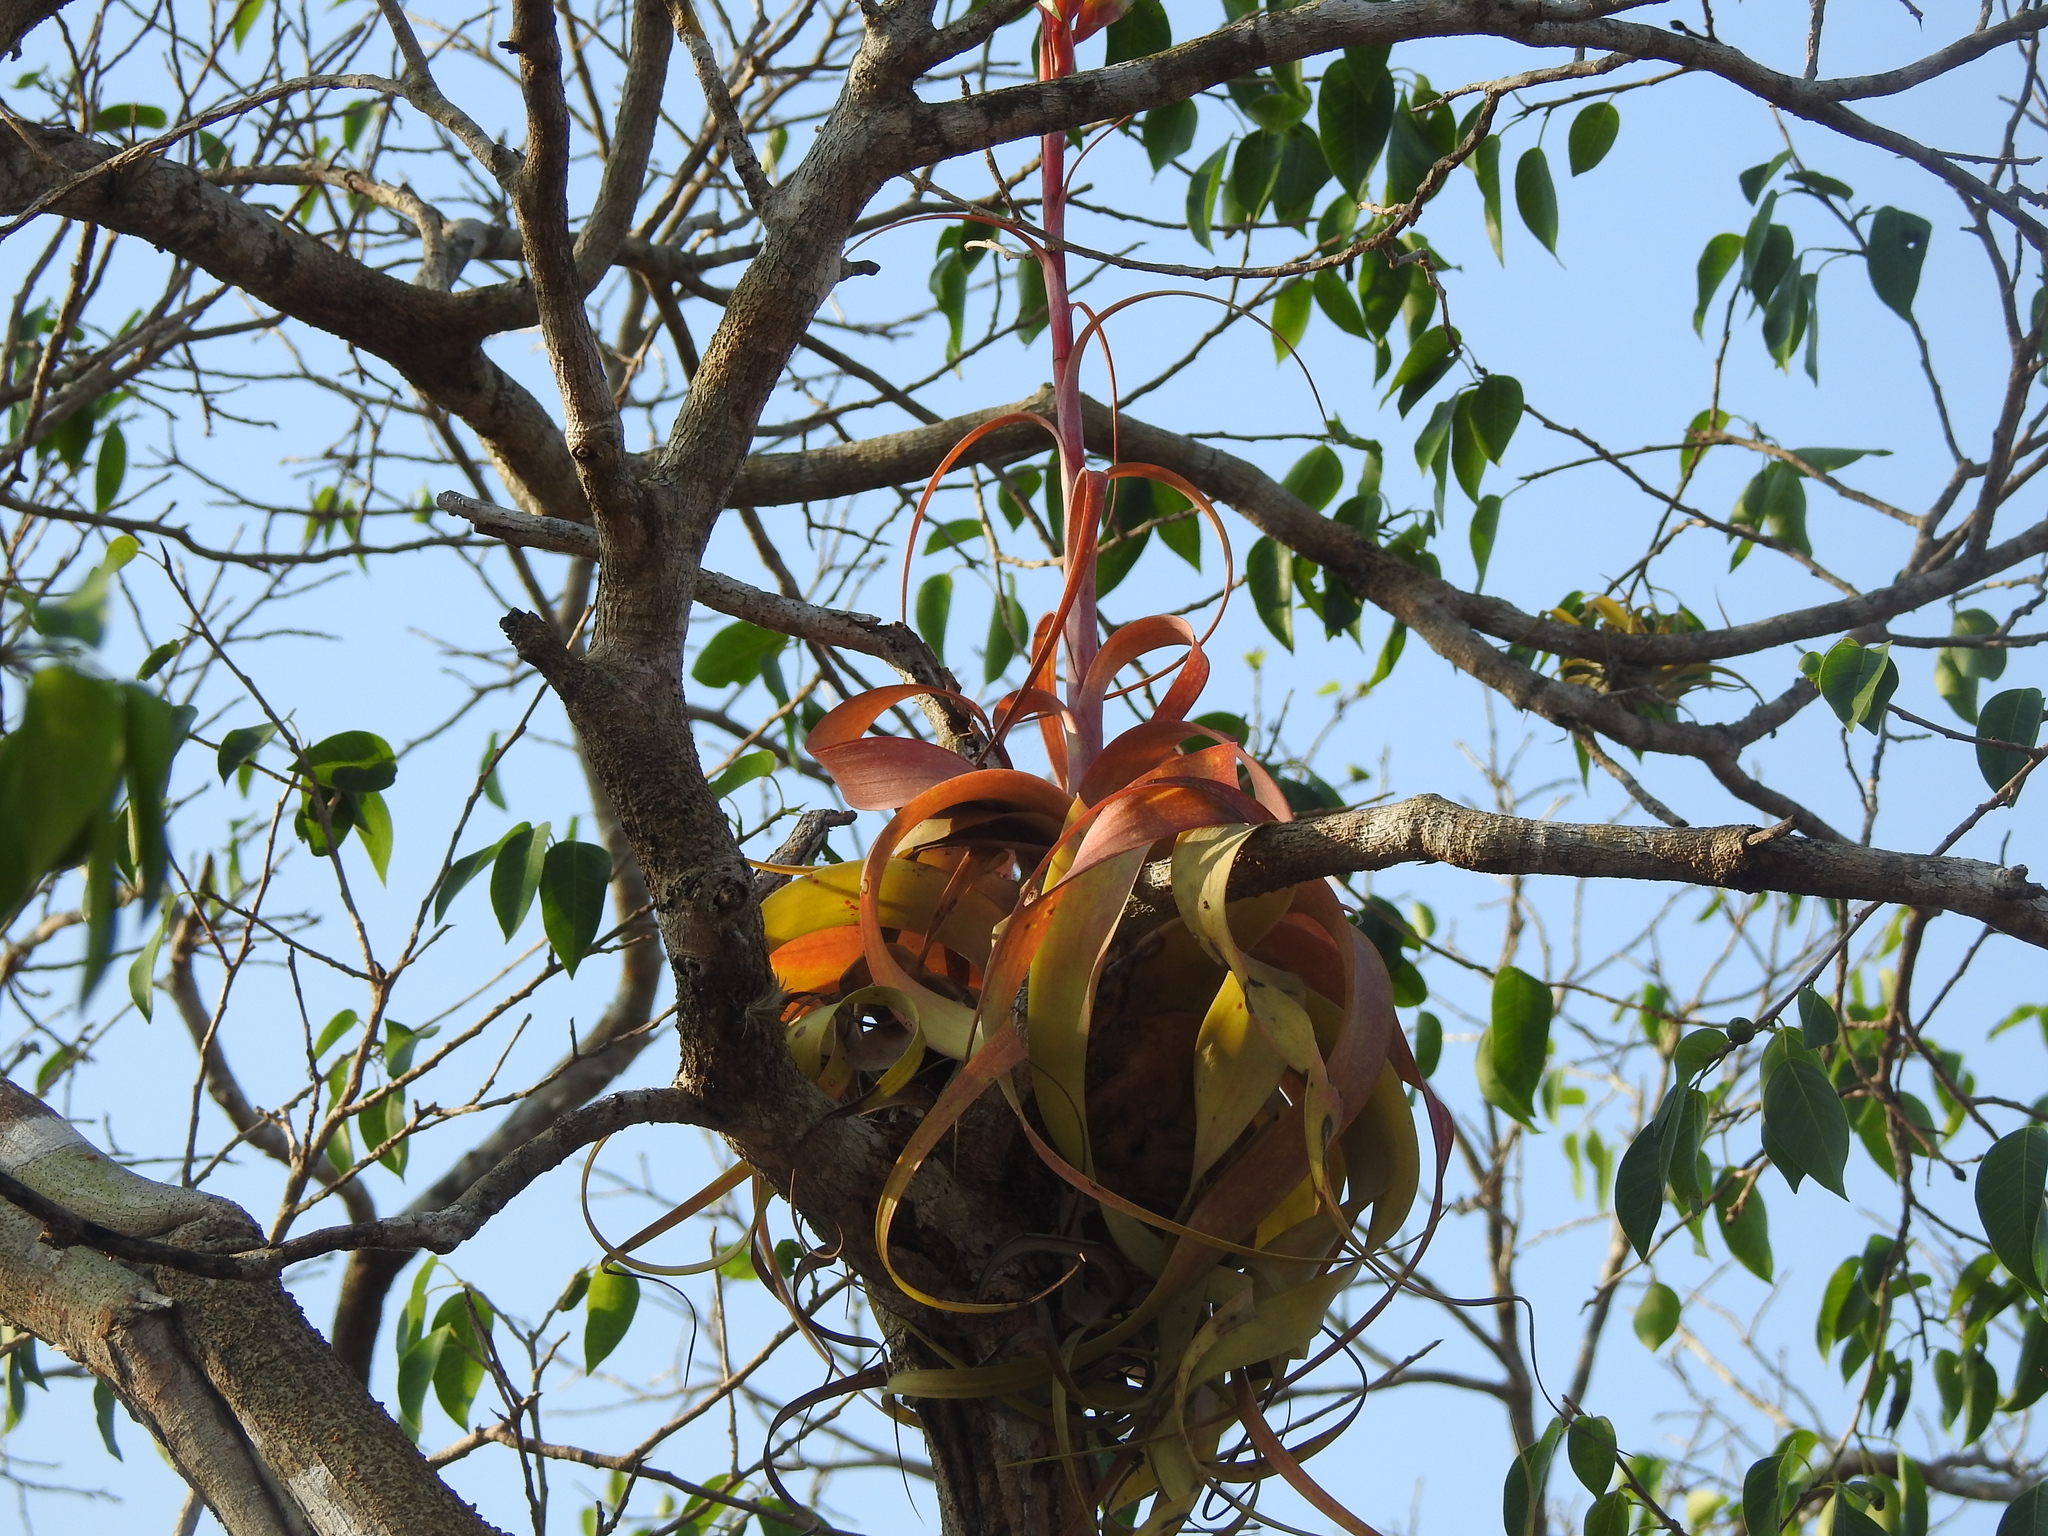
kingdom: Plantae
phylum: Tracheophyta
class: Liliopsida
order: Poales
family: Bromeliaceae
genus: Tillandsia
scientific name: Tillandsia roland-gosselinii
